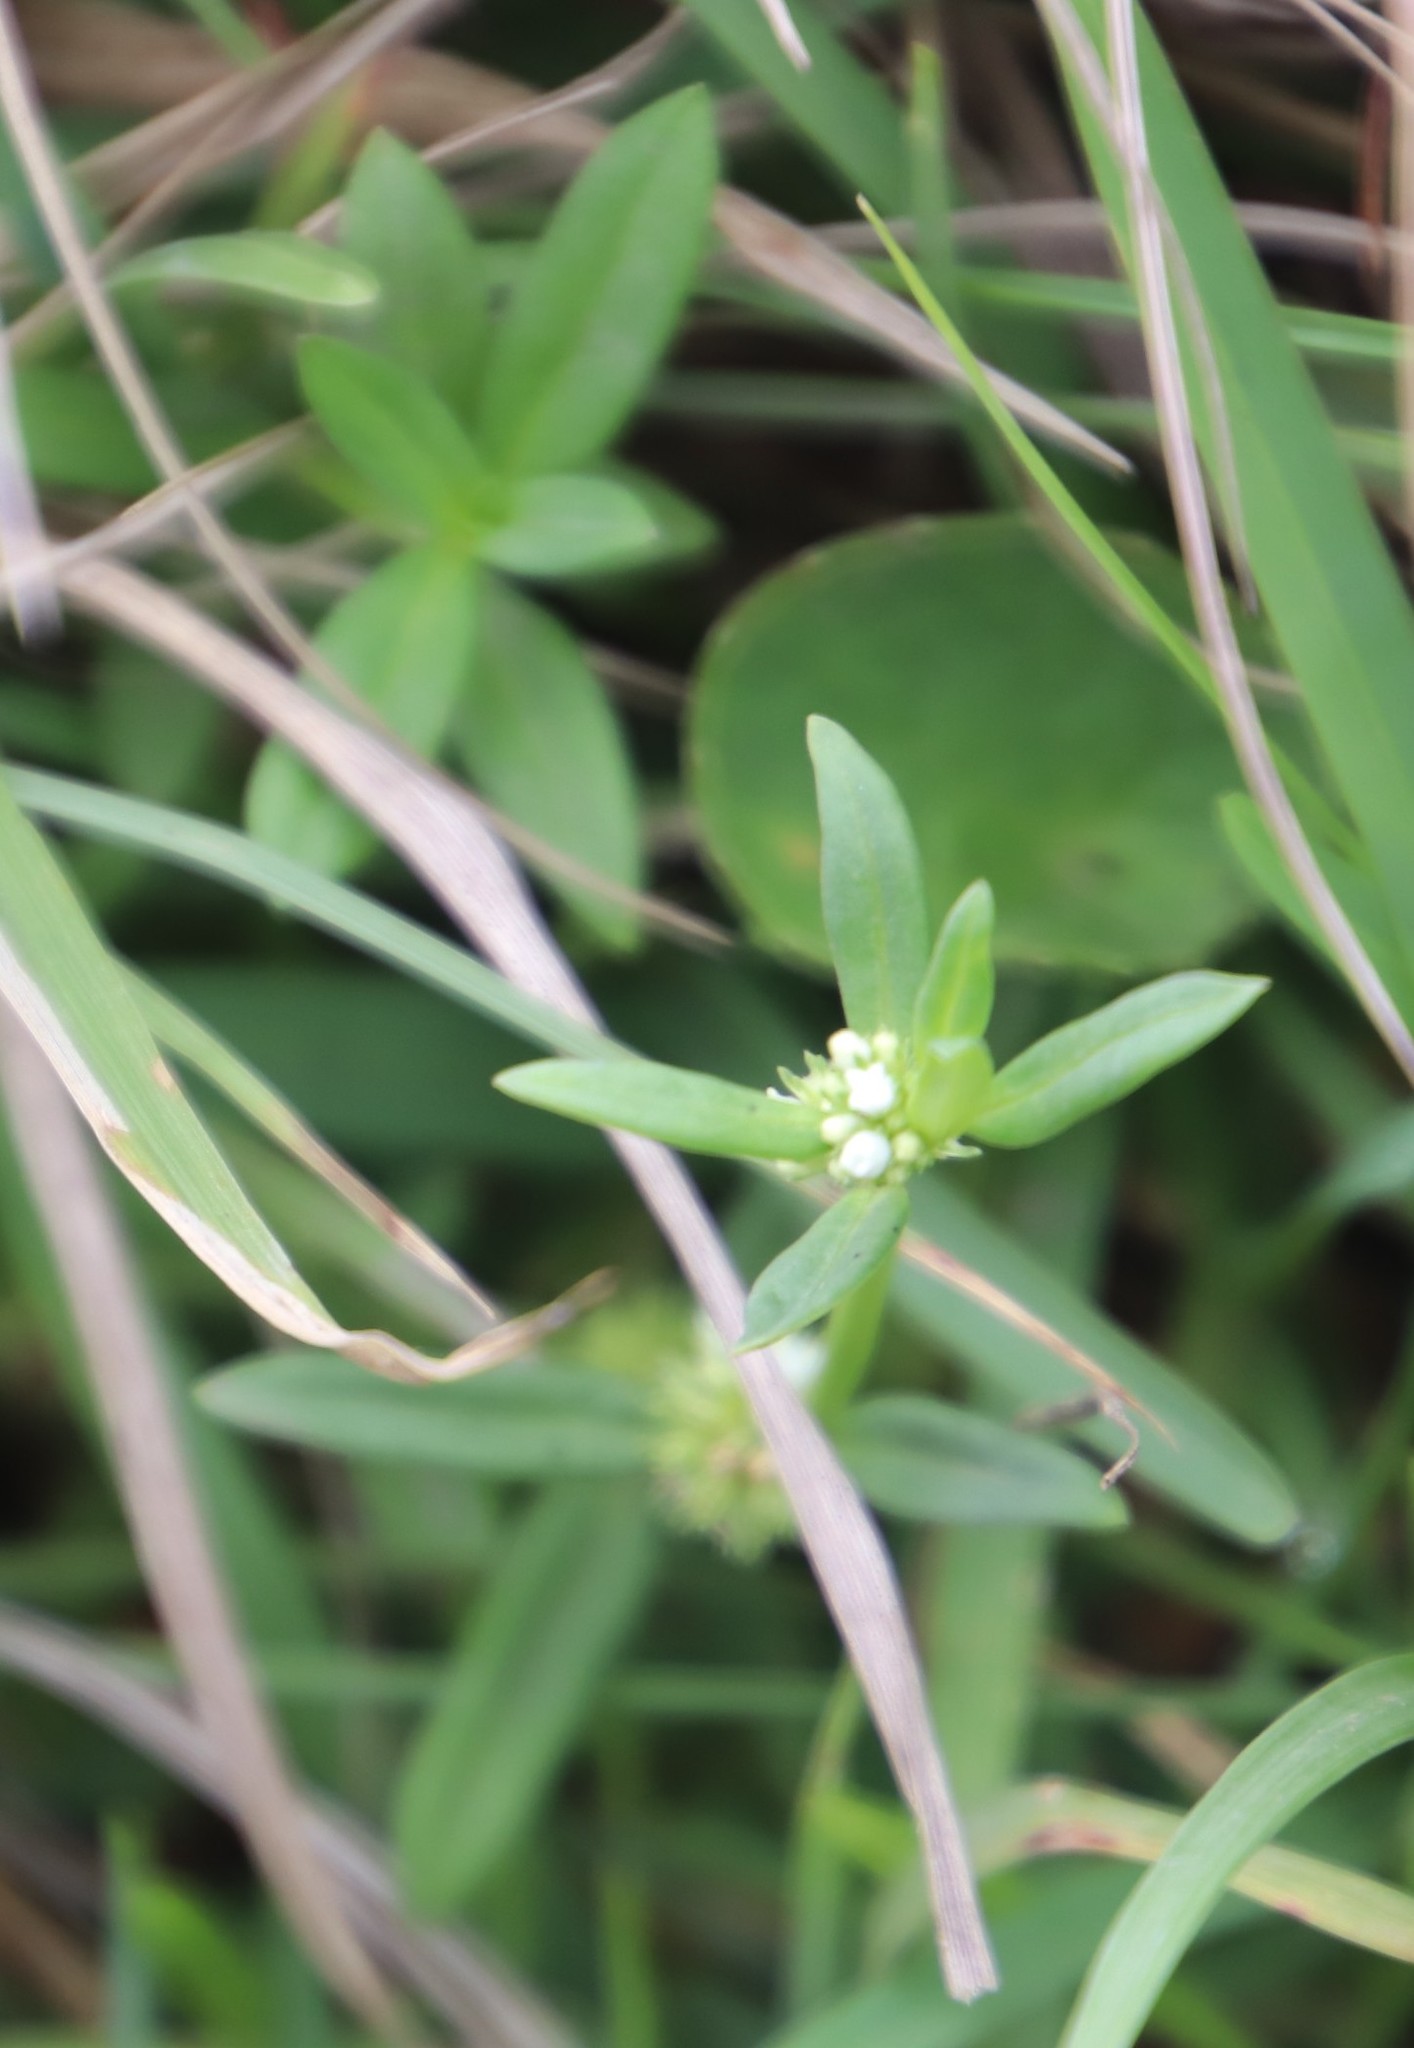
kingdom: Plantae
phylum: Tracheophyta
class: Magnoliopsida
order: Gentianales
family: Rubiaceae
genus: Spermacoce
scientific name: Spermacoce natalensis
